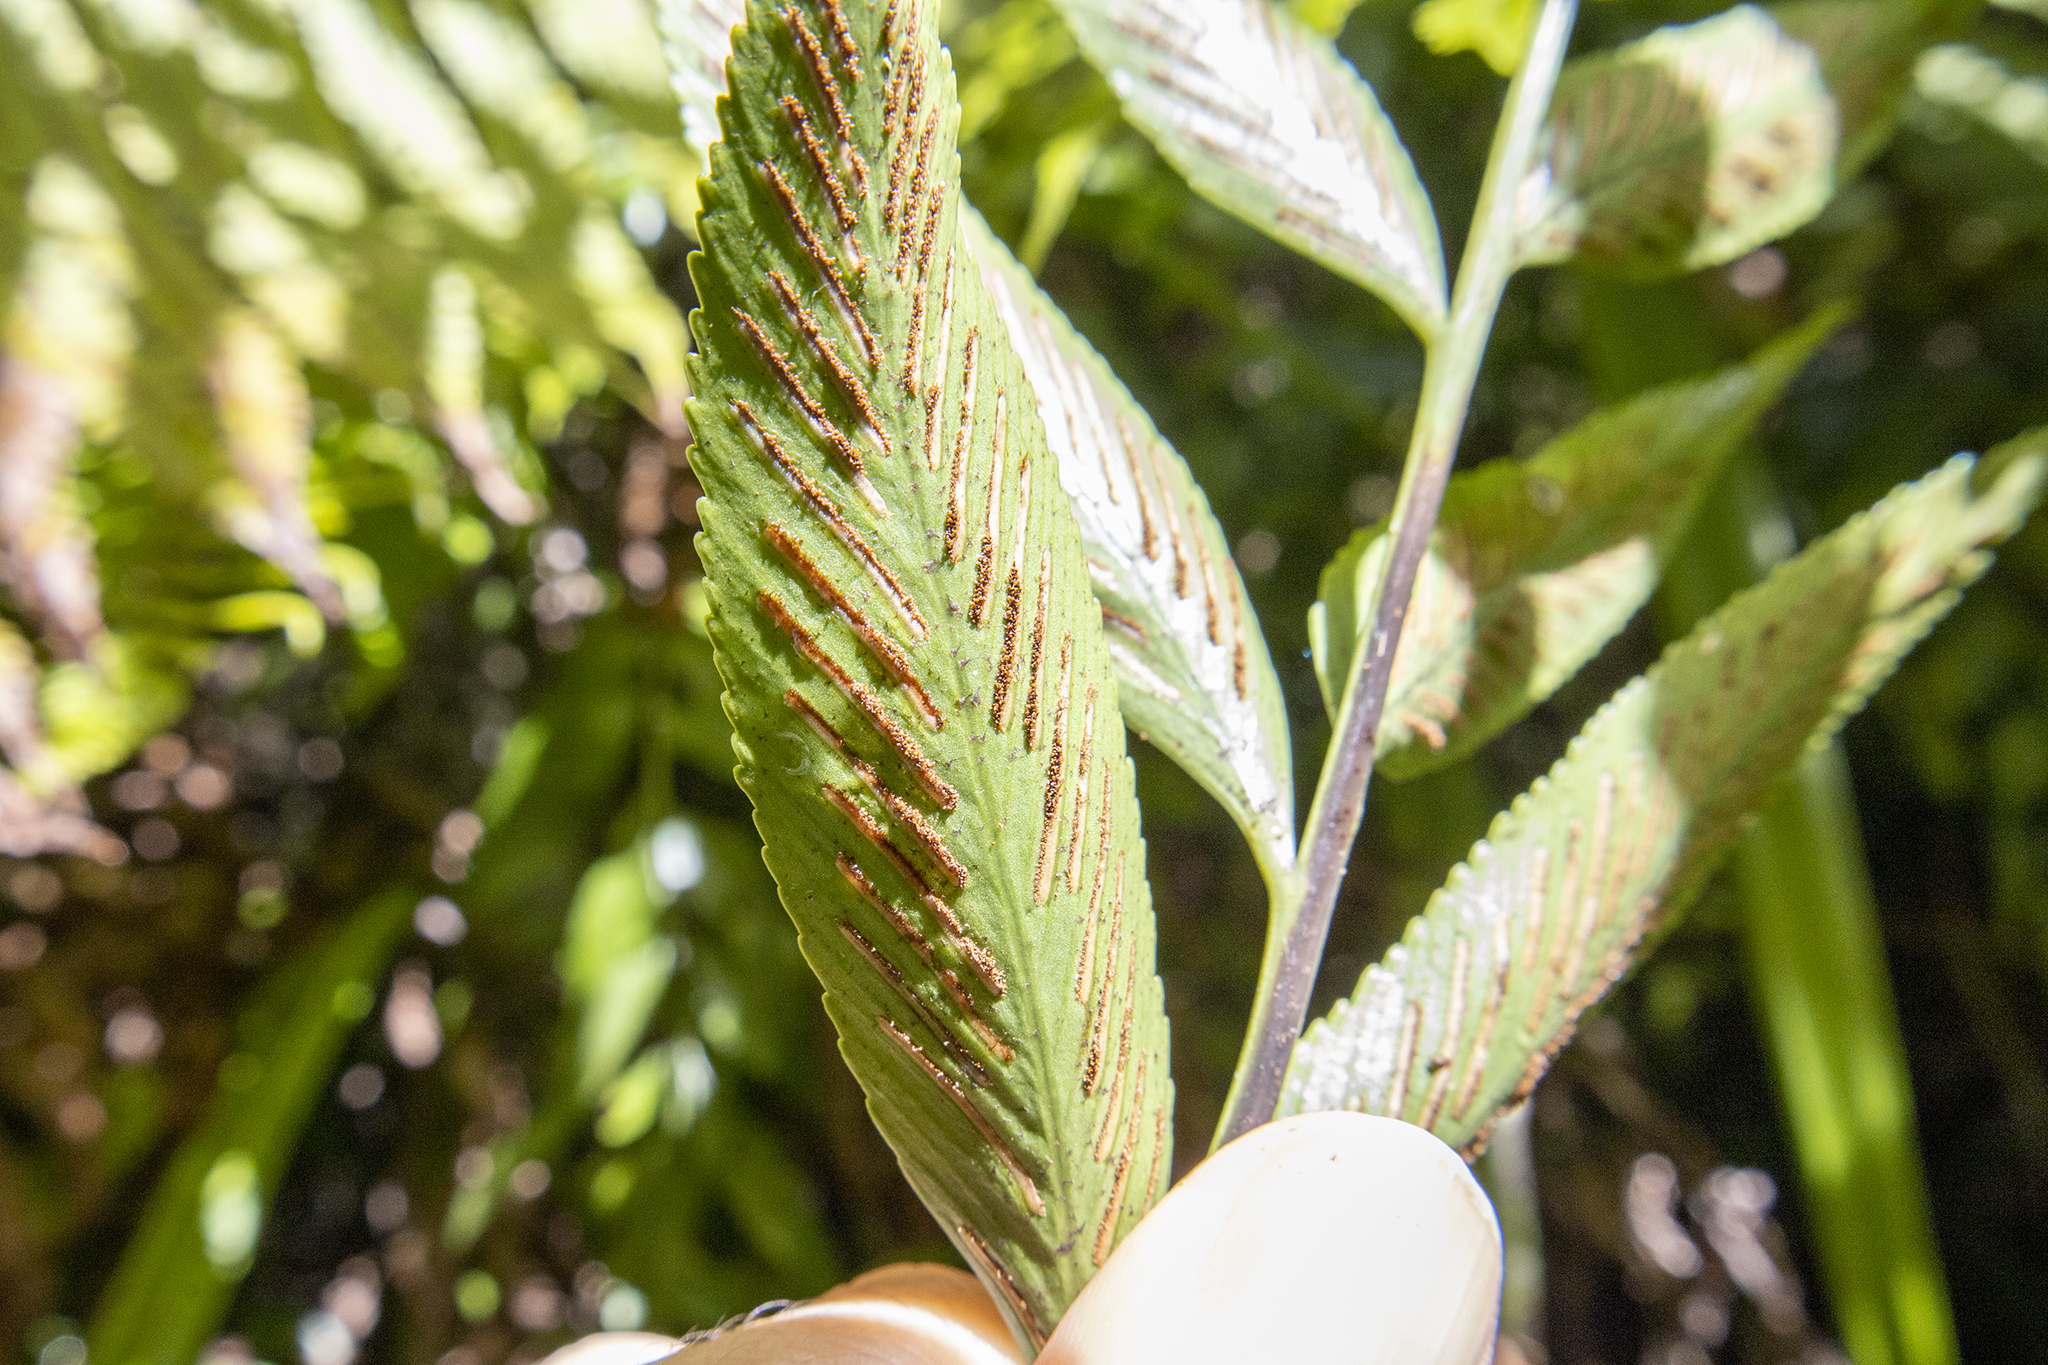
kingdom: Plantae
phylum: Tracheophyta
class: Polypodiopsida
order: Polypodiales
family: Aspleniaceae
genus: Asplenium
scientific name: Asplenium oblongifolium
